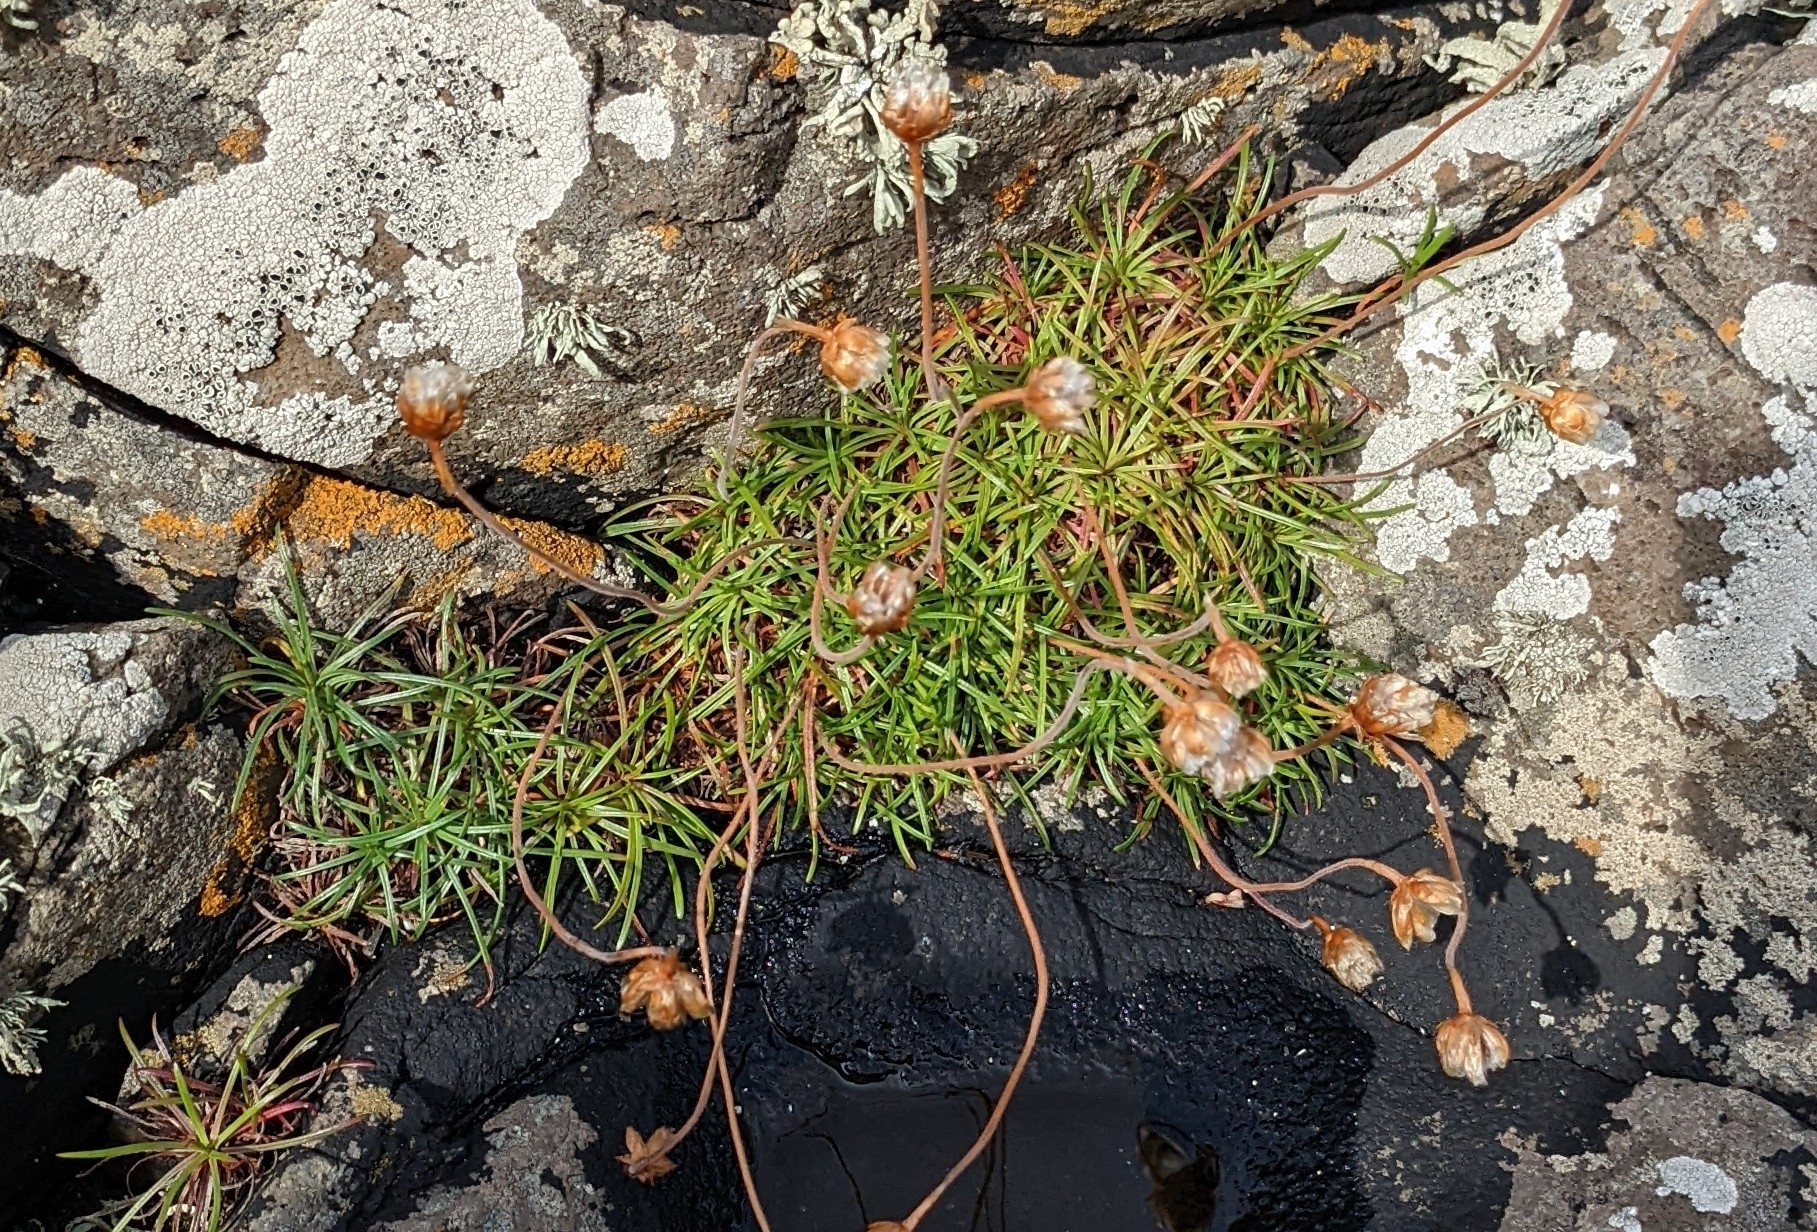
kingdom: Plantae
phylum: Tracheophyta
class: Magnoliopsida
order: Caryophyllales
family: Plumbaginaceae
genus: Armeria
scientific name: Armeria maritima
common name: Thrift
